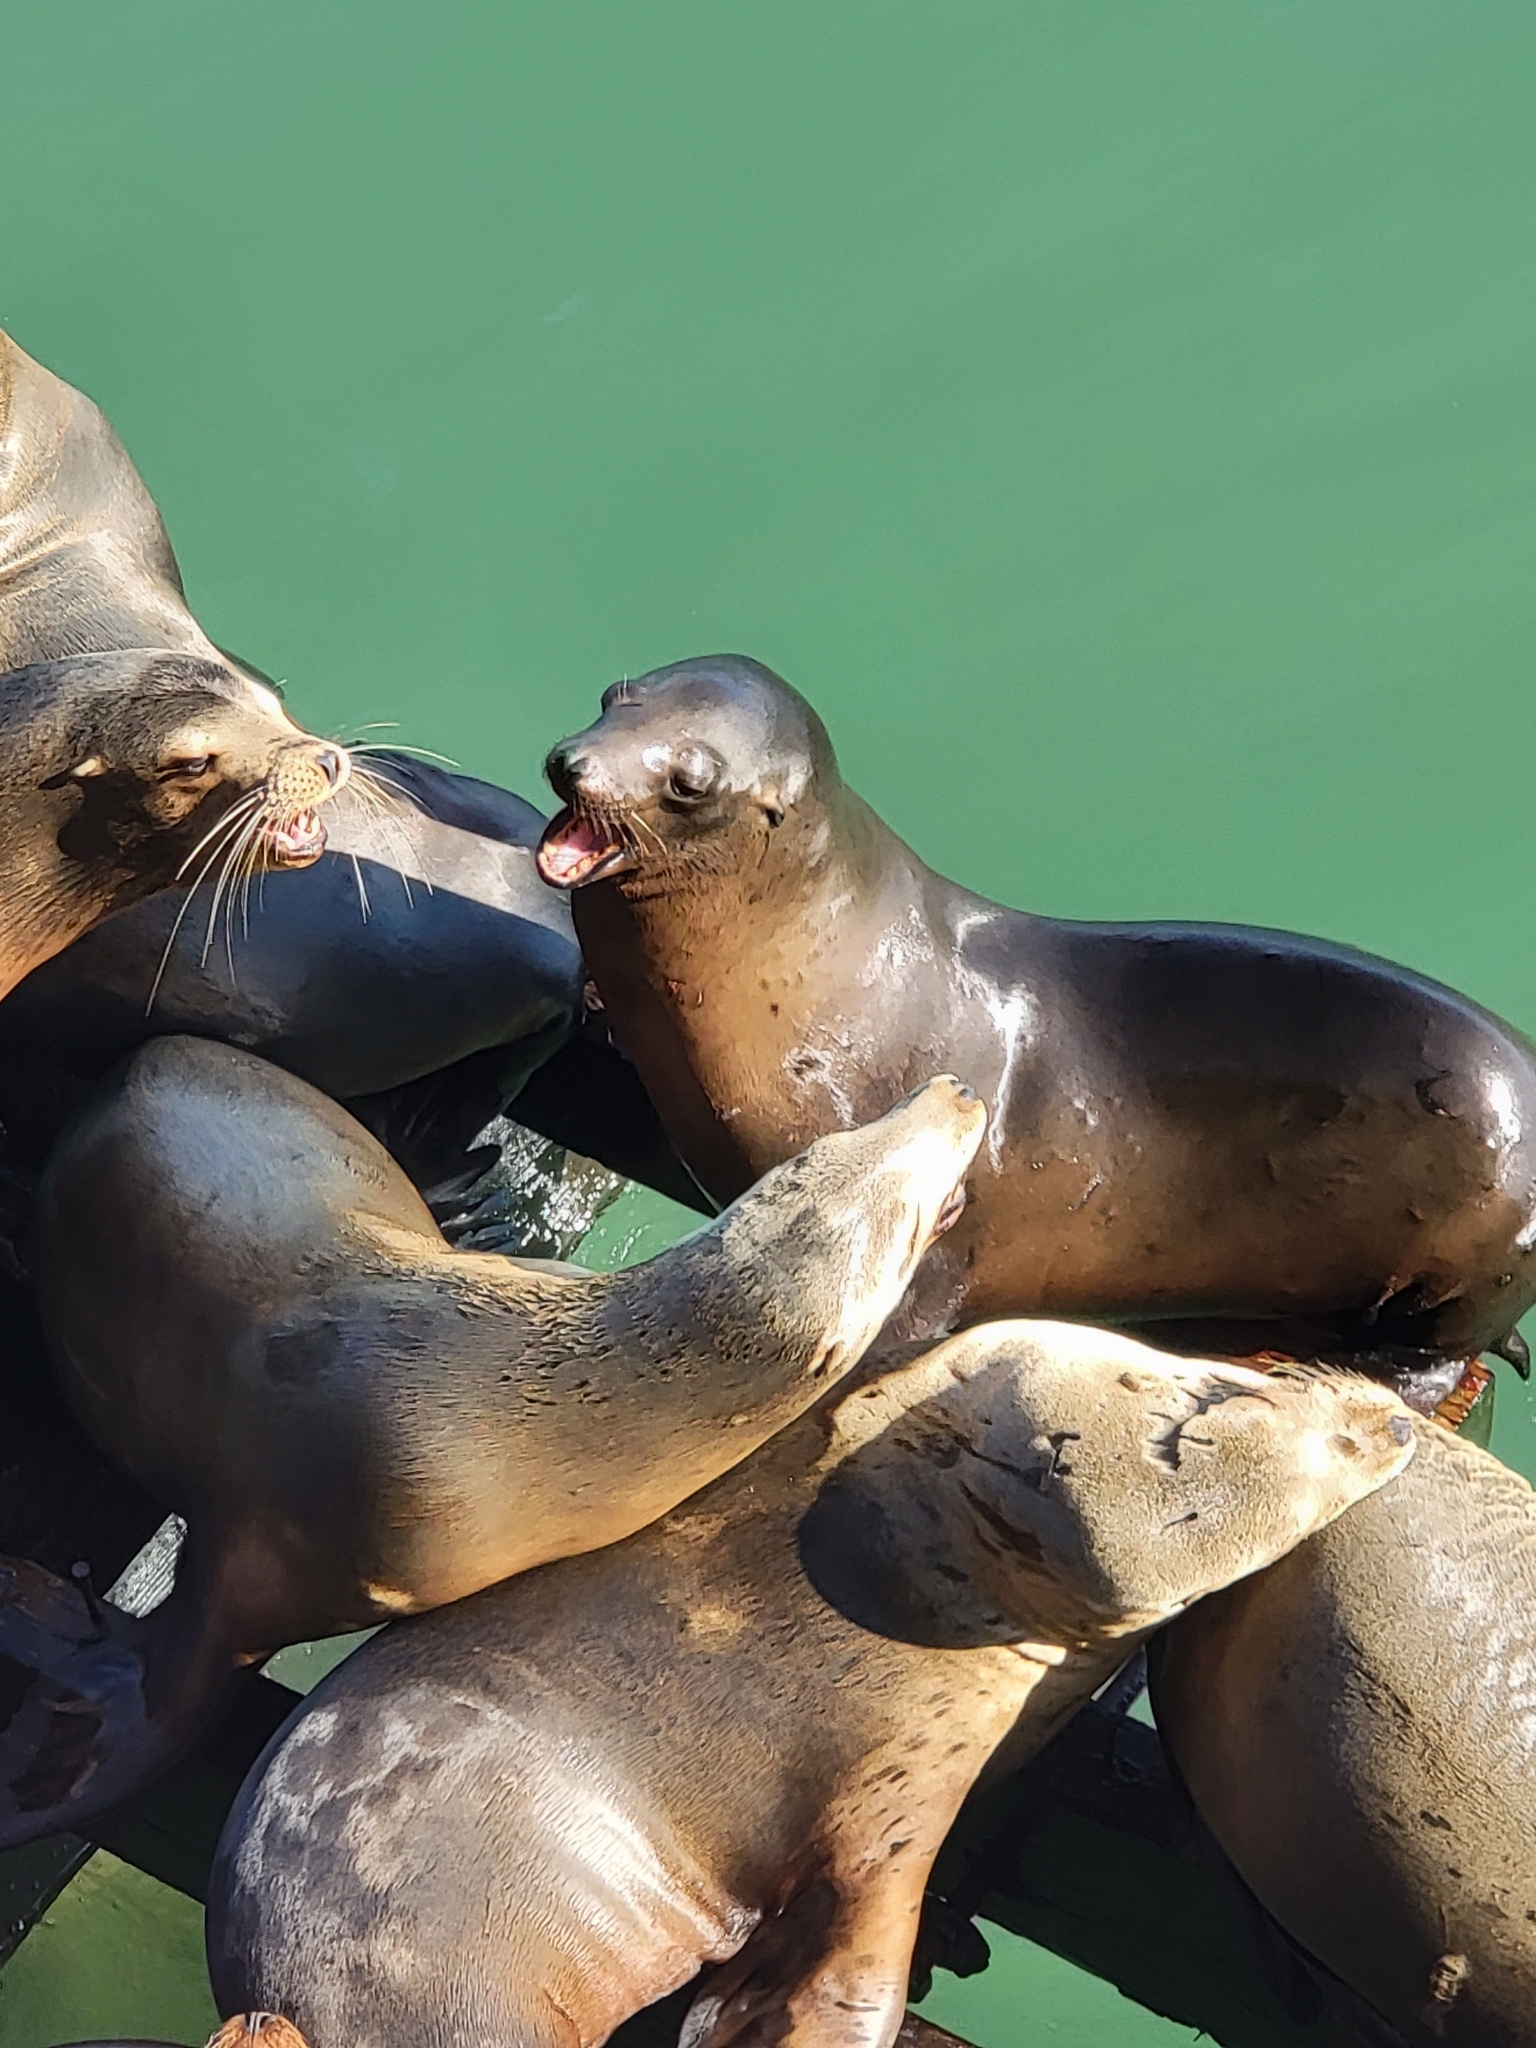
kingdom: Animalia
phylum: Chordata
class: Mammalia
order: Carnivora
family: Otariidae
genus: Zalophus
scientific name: Zalophus californianus
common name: California sea lion
